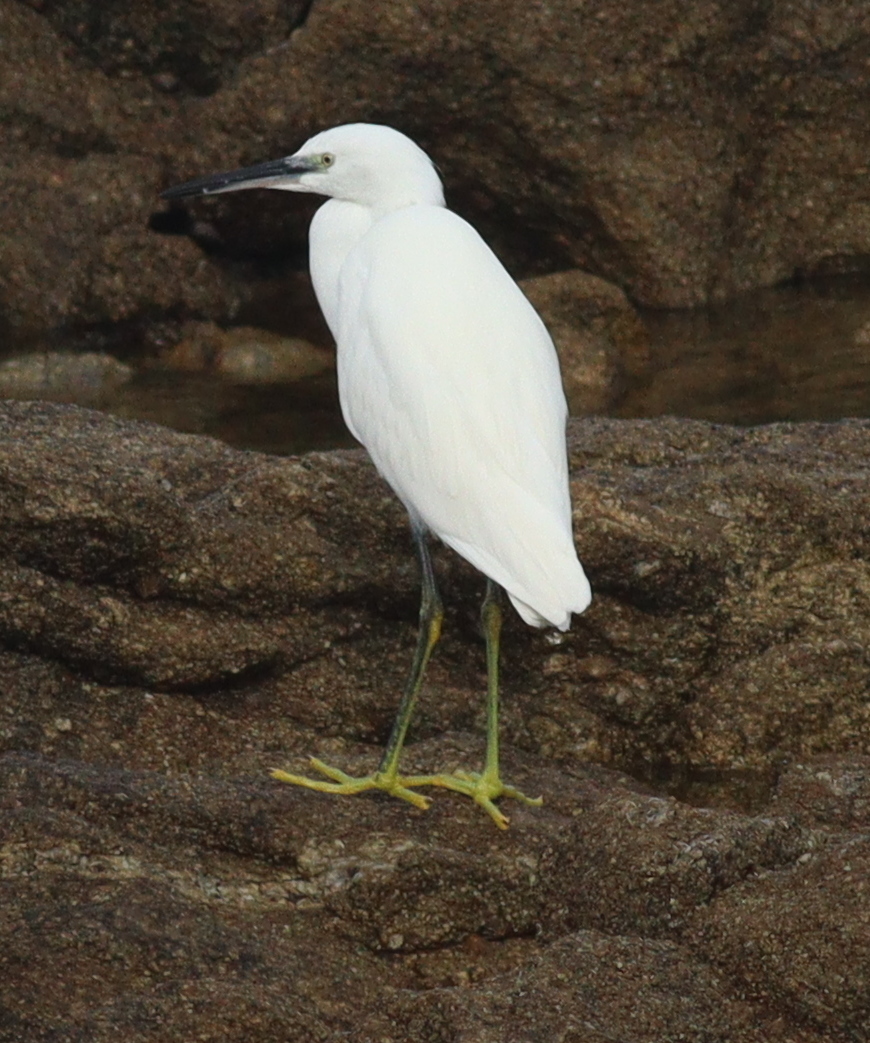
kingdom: Animalia
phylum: Chordata
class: Aves
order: Pelecaniformes
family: Ardeidae
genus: Egretta
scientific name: Egretta garzetta
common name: Little egret
